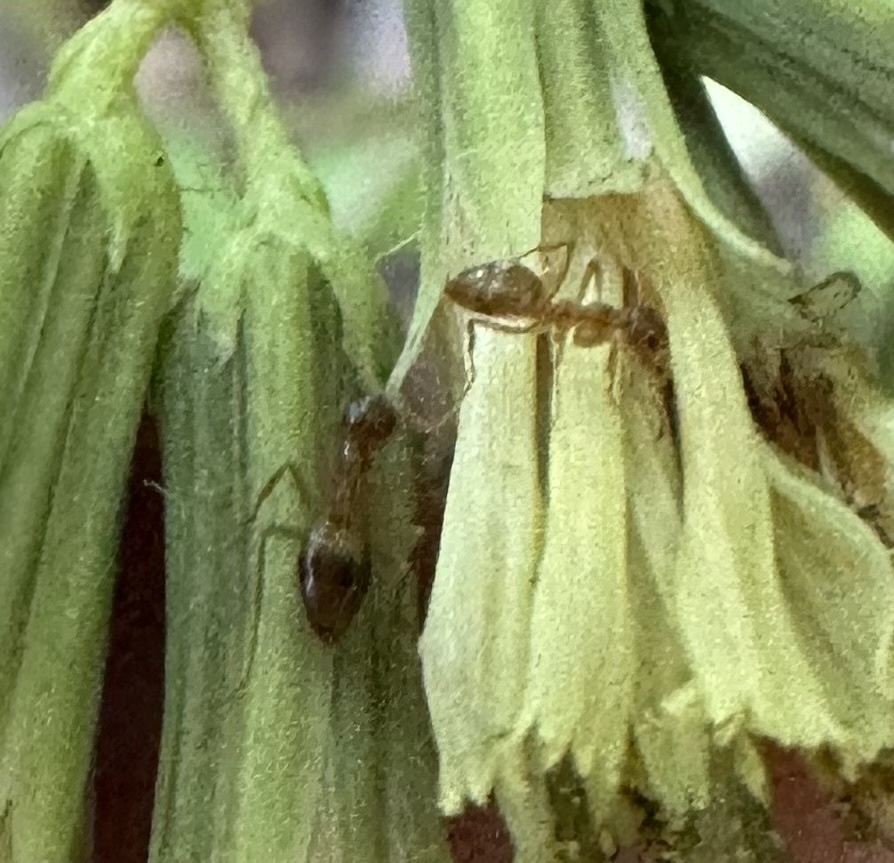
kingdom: Animalia
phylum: Arthropoda
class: Insecta
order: Hymenoptera
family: Formicidae
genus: Prenolepis
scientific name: Prenolepis imparis
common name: Small honey ant
